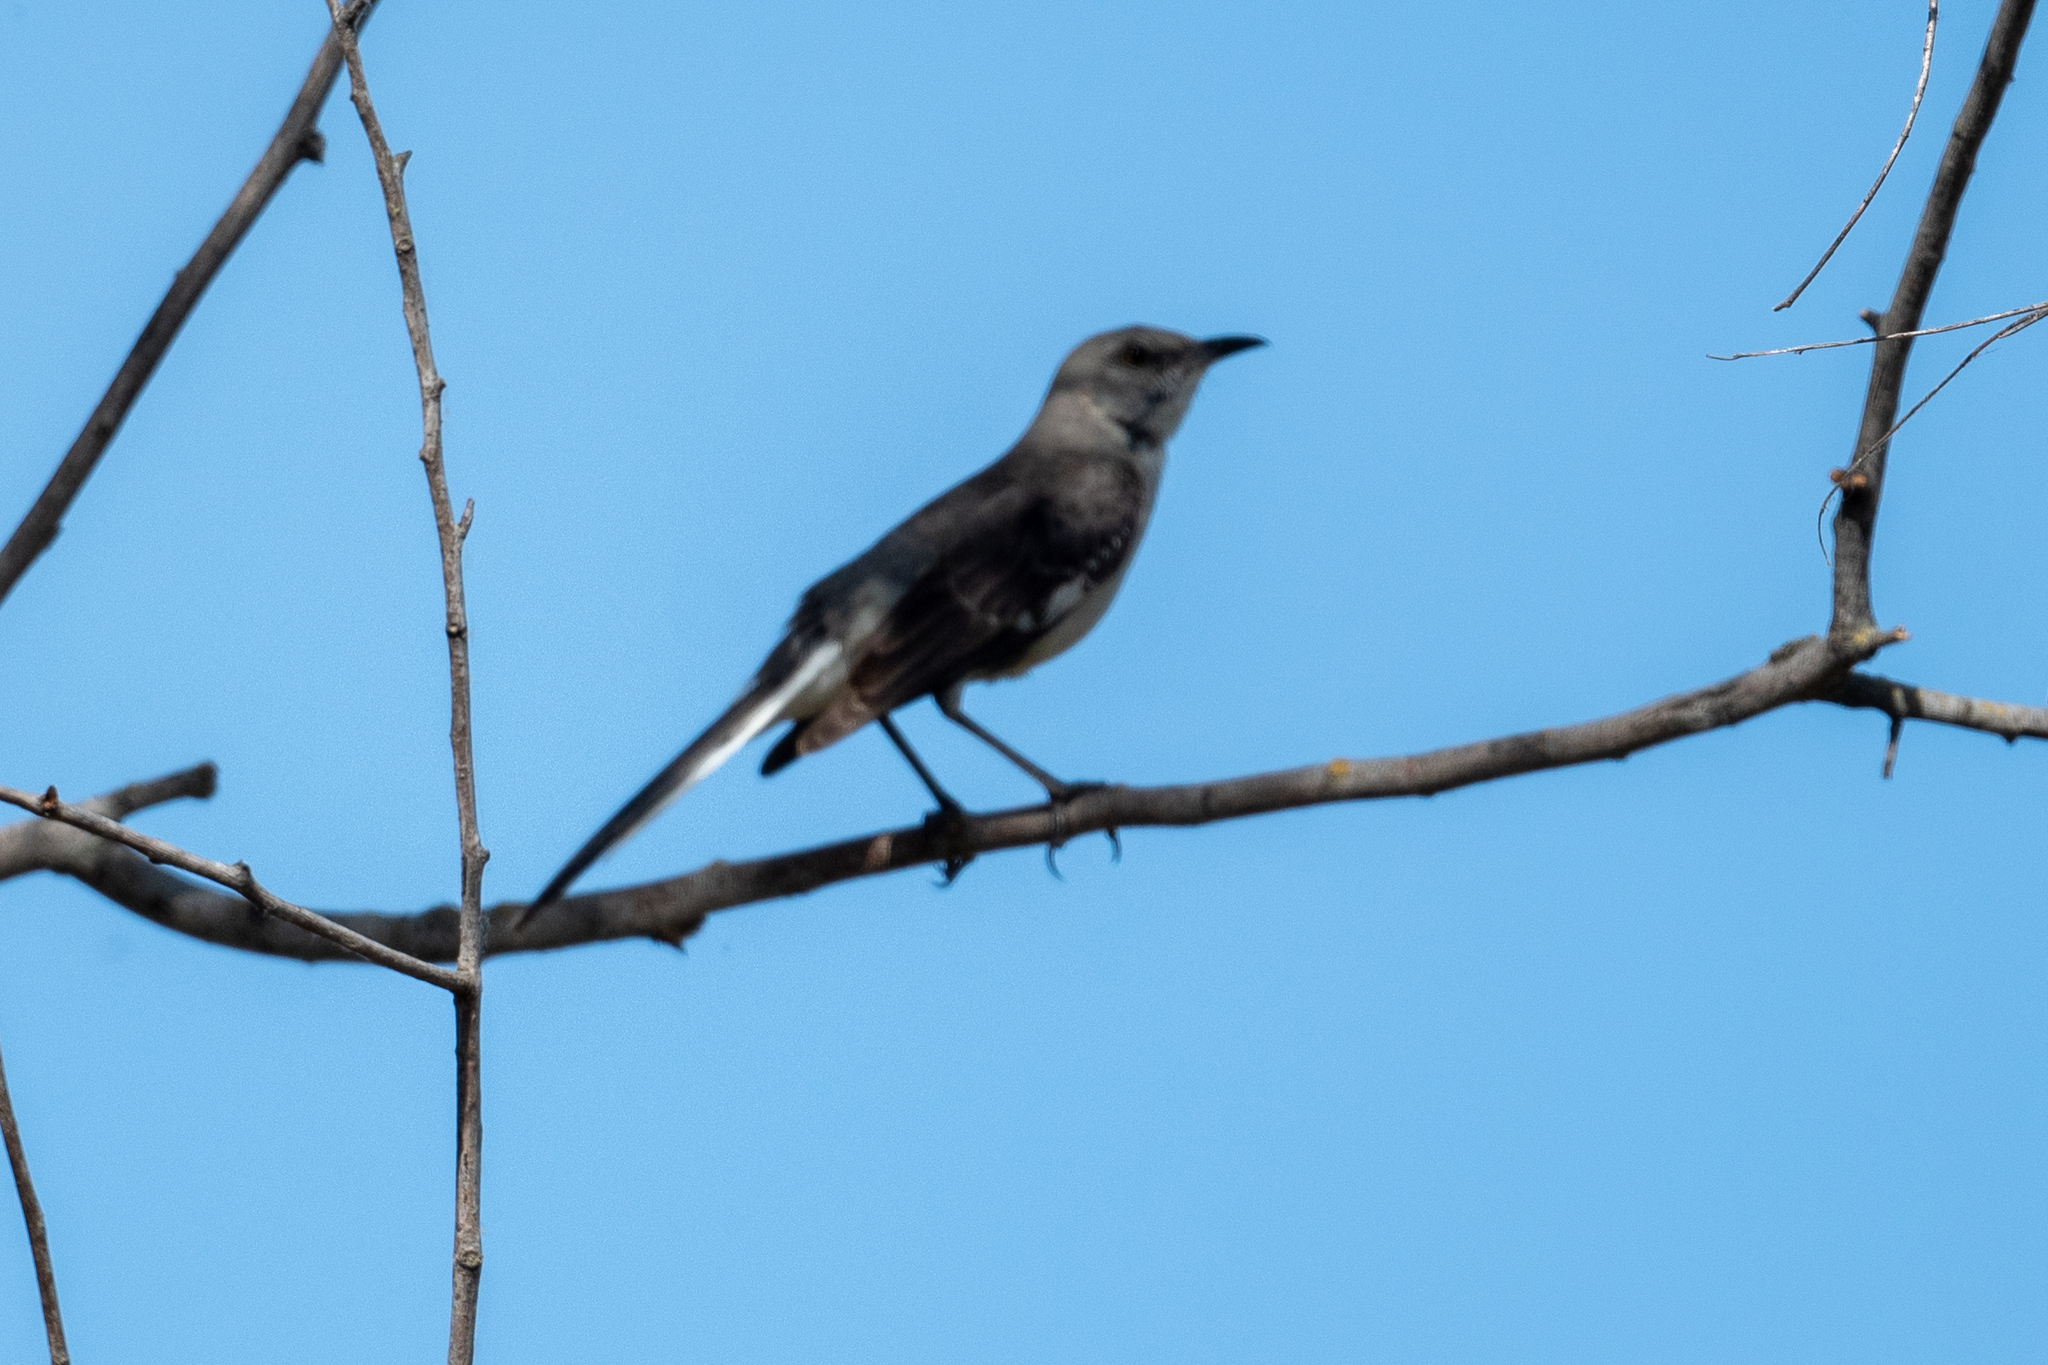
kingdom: Animalia
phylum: Chordata
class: Aves
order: Passeriformes
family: Mimidae
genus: Mimus
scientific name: Mimus polyglottos
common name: Northern mockingbird
